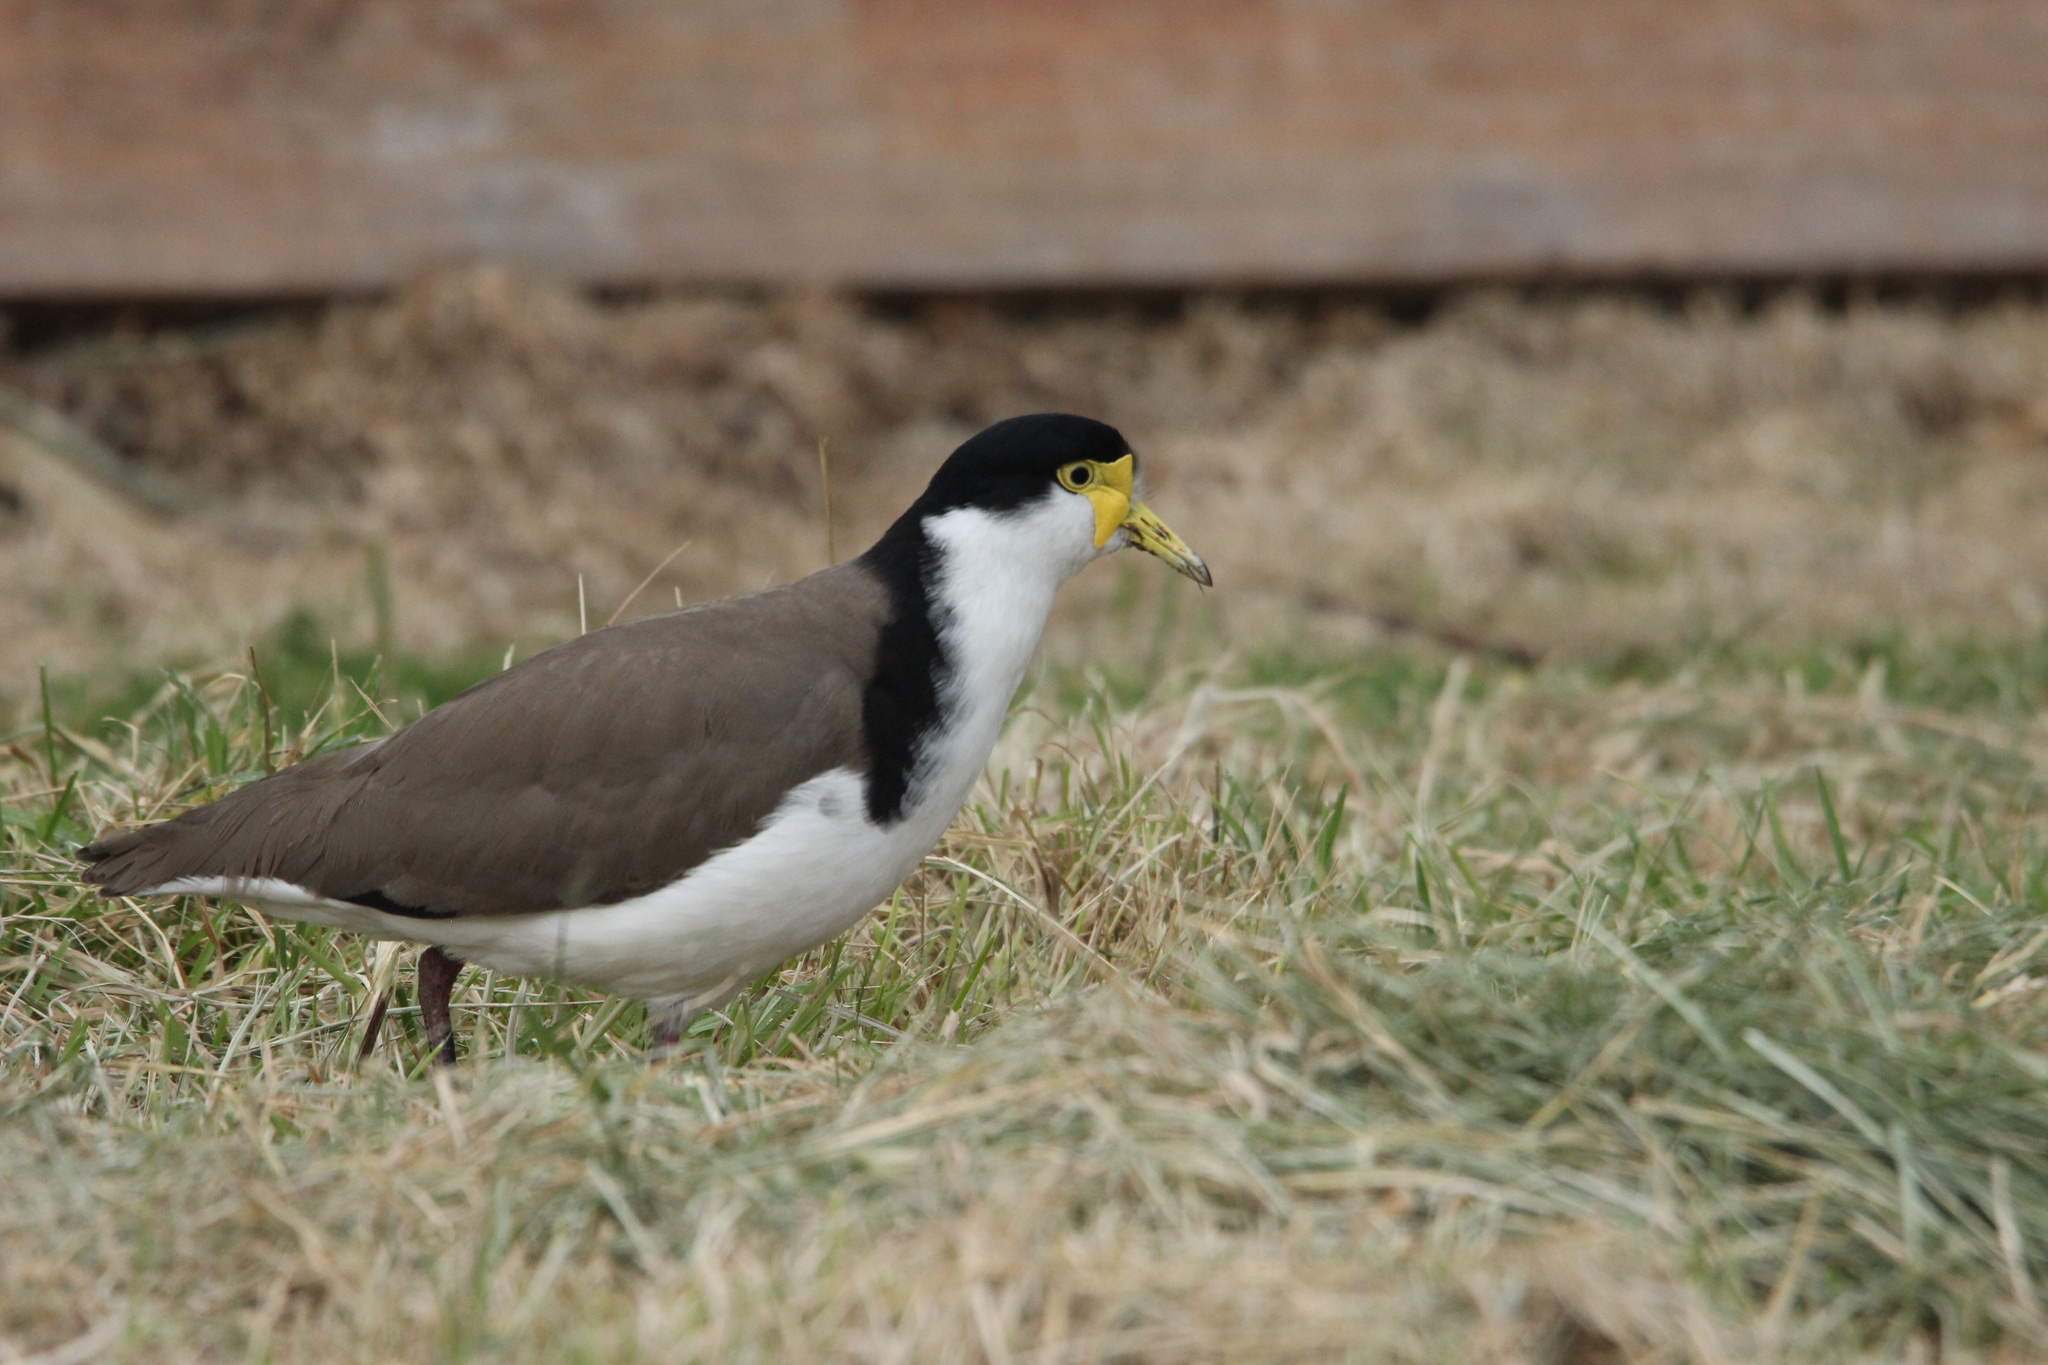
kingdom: Animalia
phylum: Chordata
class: Aves
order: Charadriiformes
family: Charadriidae
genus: Vanellus
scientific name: Vanellus miles
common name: Masked lapwing
